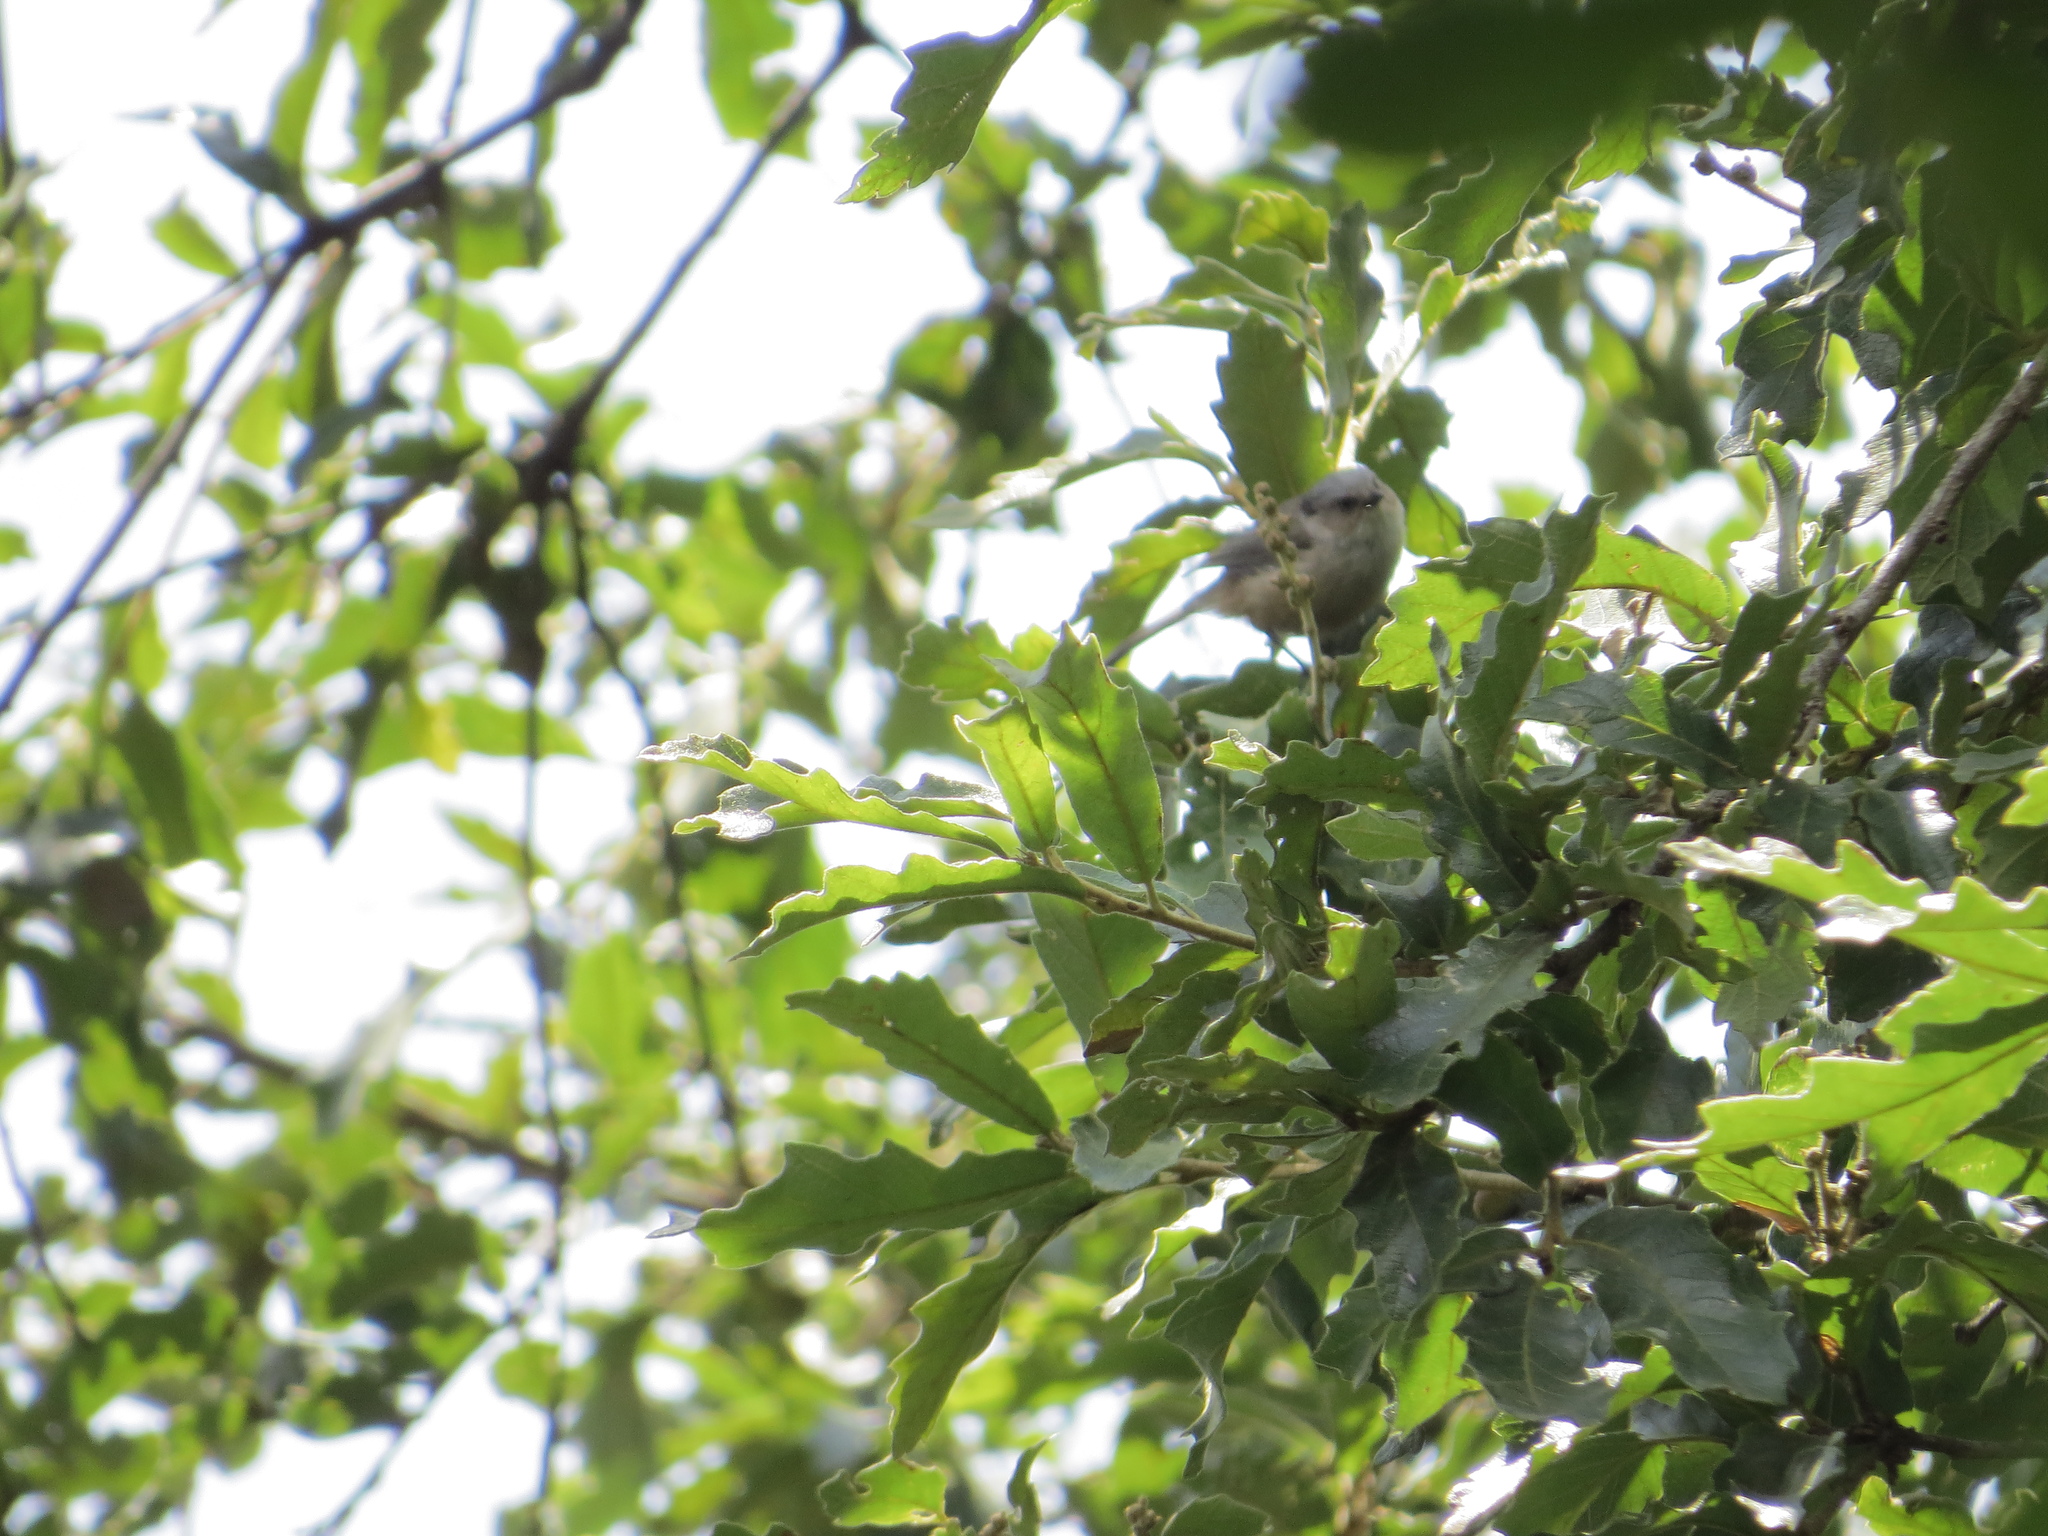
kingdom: Animalia
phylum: Chordata
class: Aves
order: Passeriformes
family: Aegithalidae
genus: Psaltriparus
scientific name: Psaltriparus minimus
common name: American bushtit
